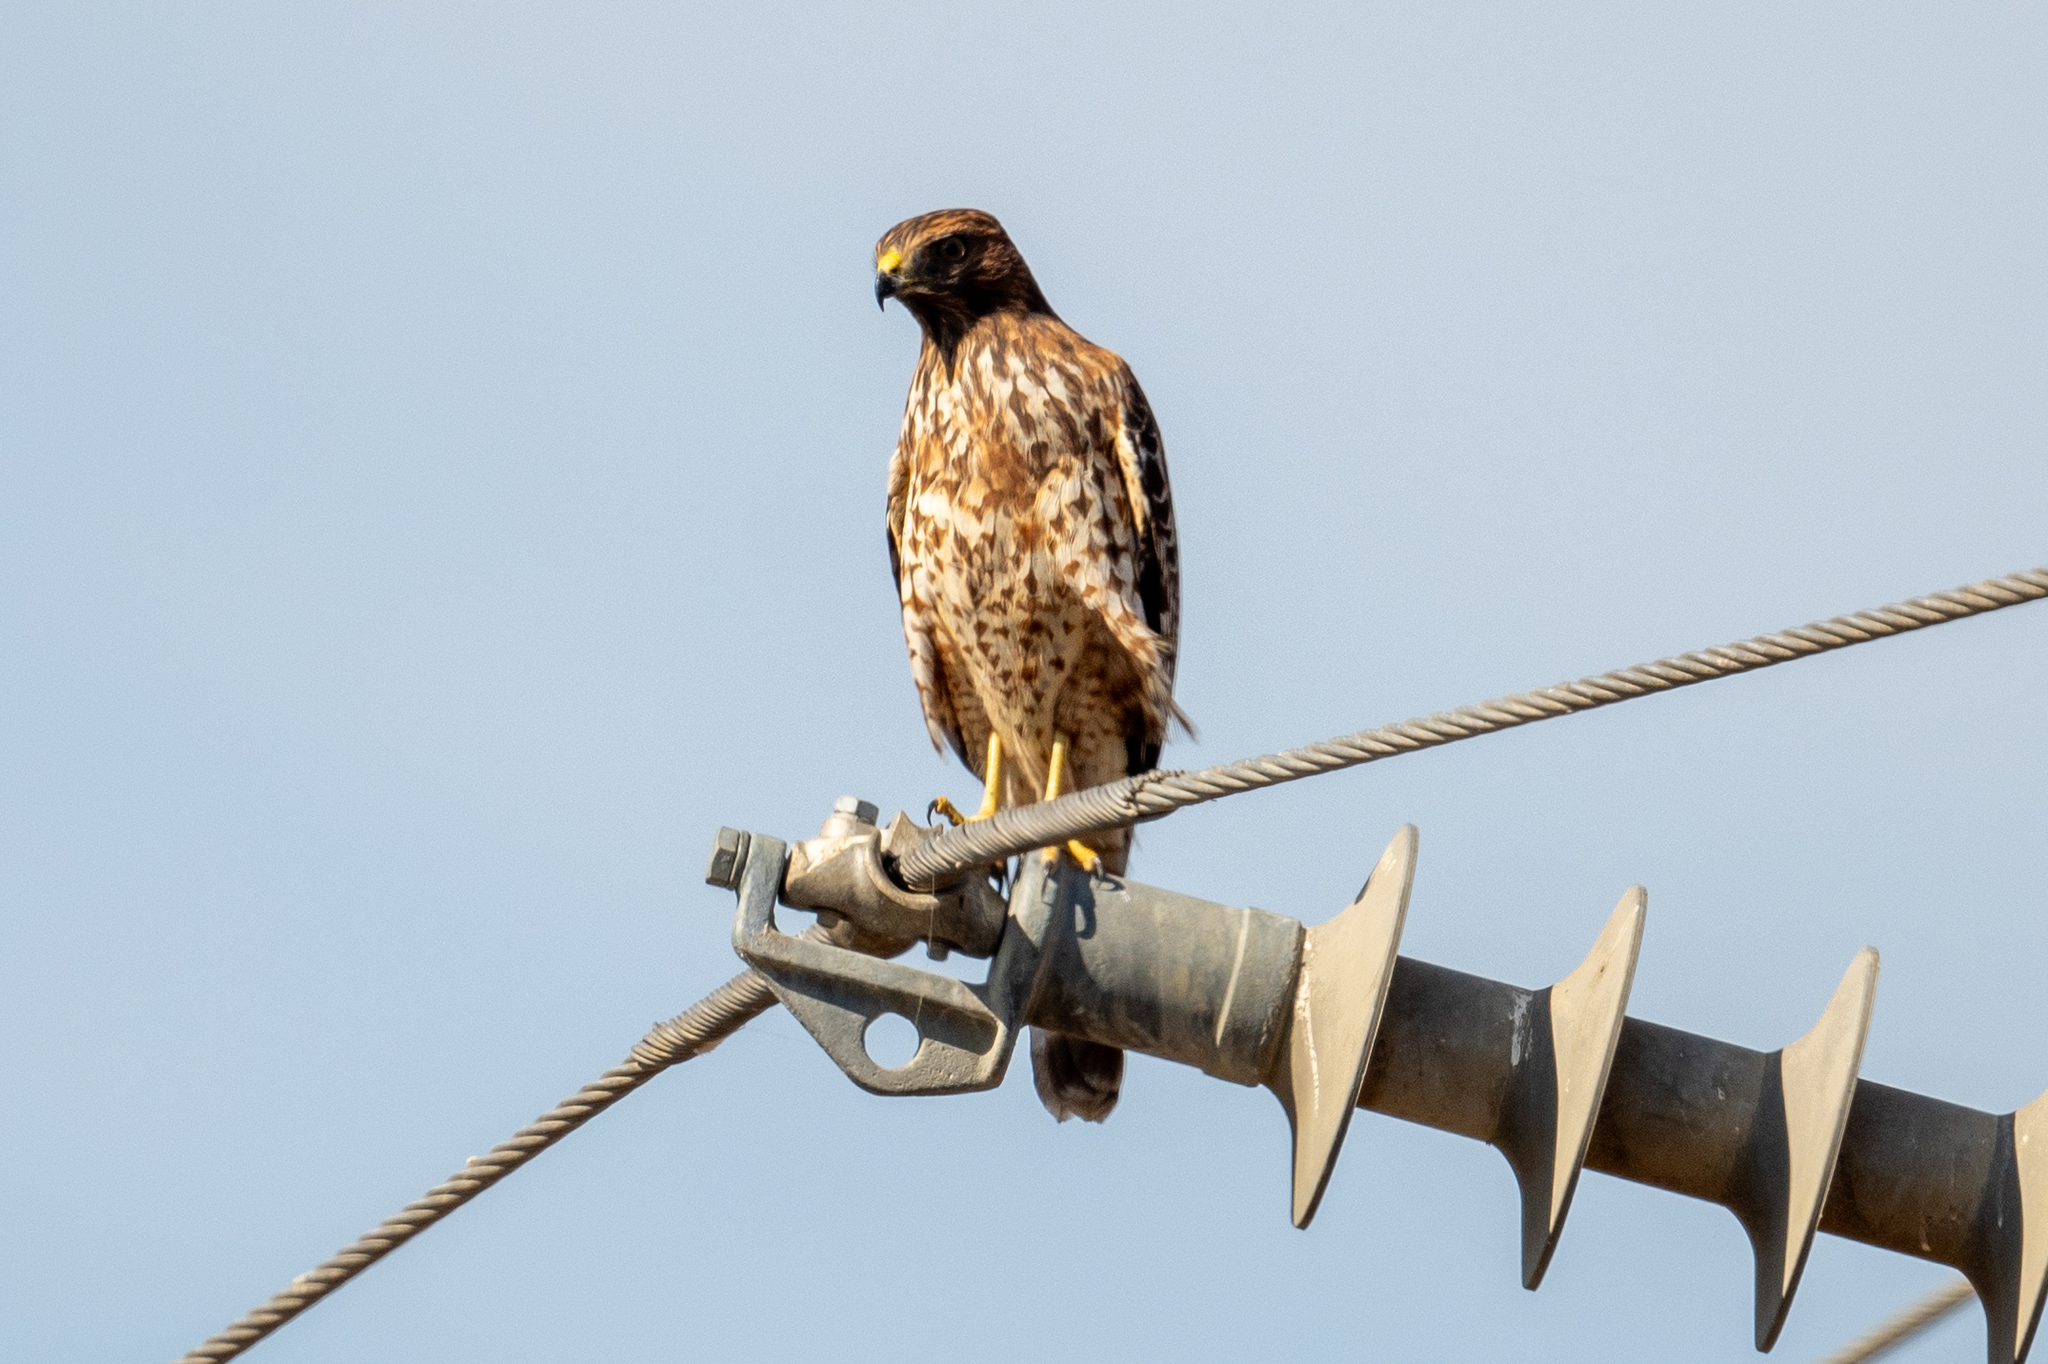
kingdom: Animalia
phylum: Chordata
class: Aves
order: Accipitriformes
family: Accipitridae
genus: Buteo
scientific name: Buteo lineatus
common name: Red-shouldered hawk
